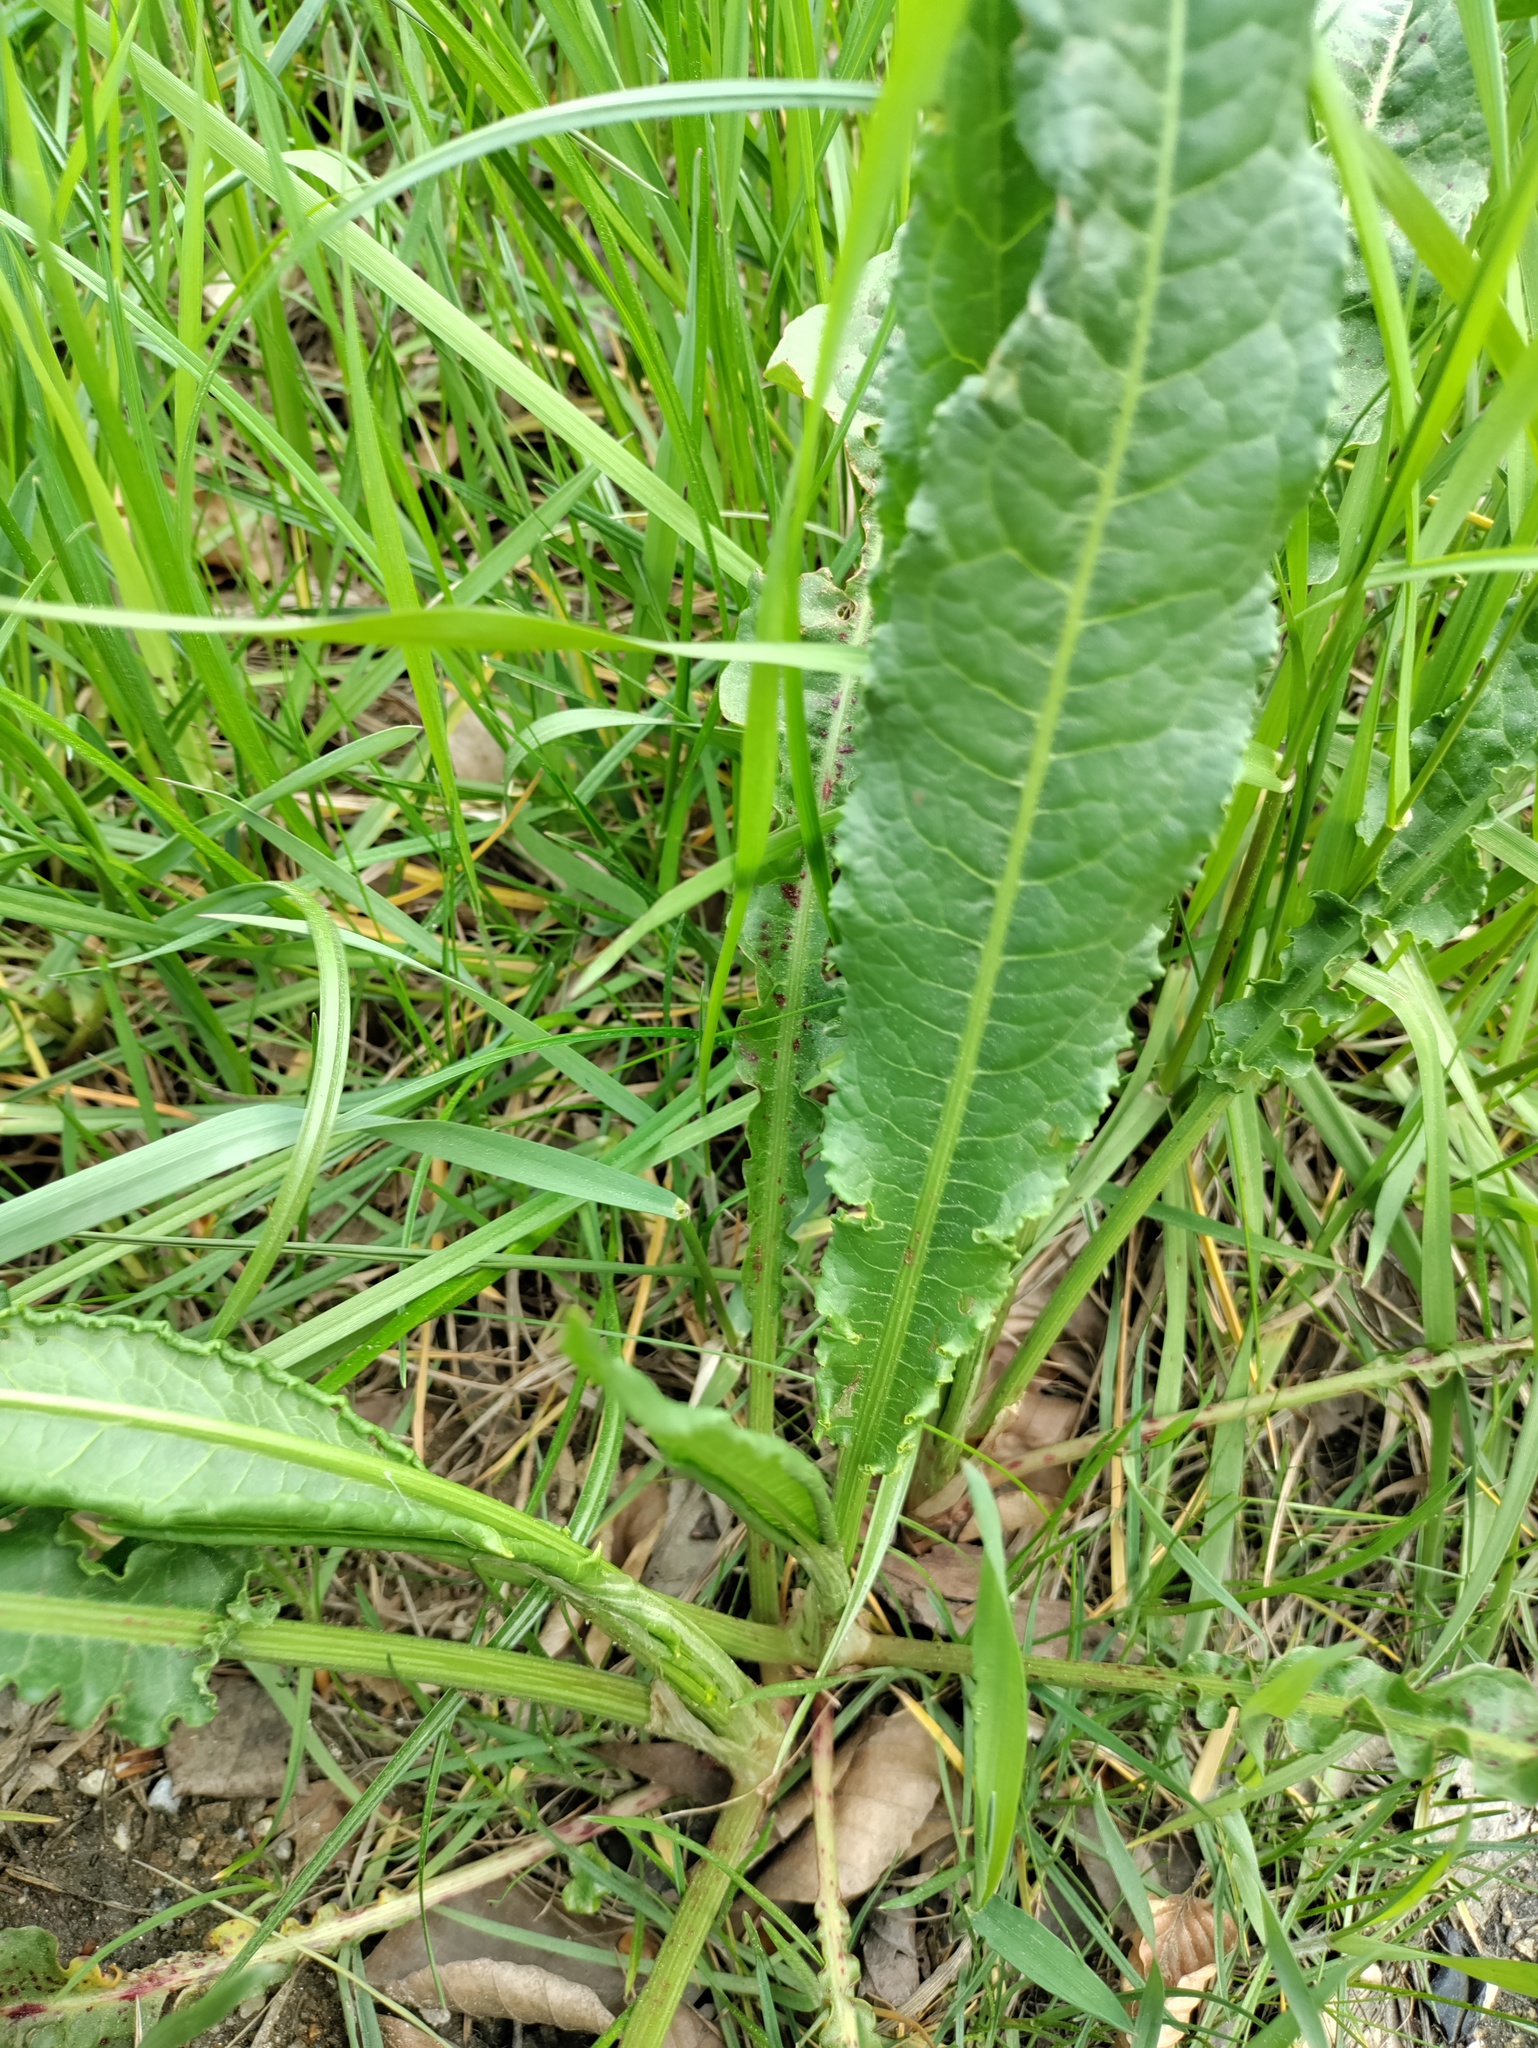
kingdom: Plantae
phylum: Tracheophyta
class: Magnoliopsida
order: Caryophyllales
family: Polygonaceae
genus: Rumex
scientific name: Rumex crispus
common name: Curled dock
